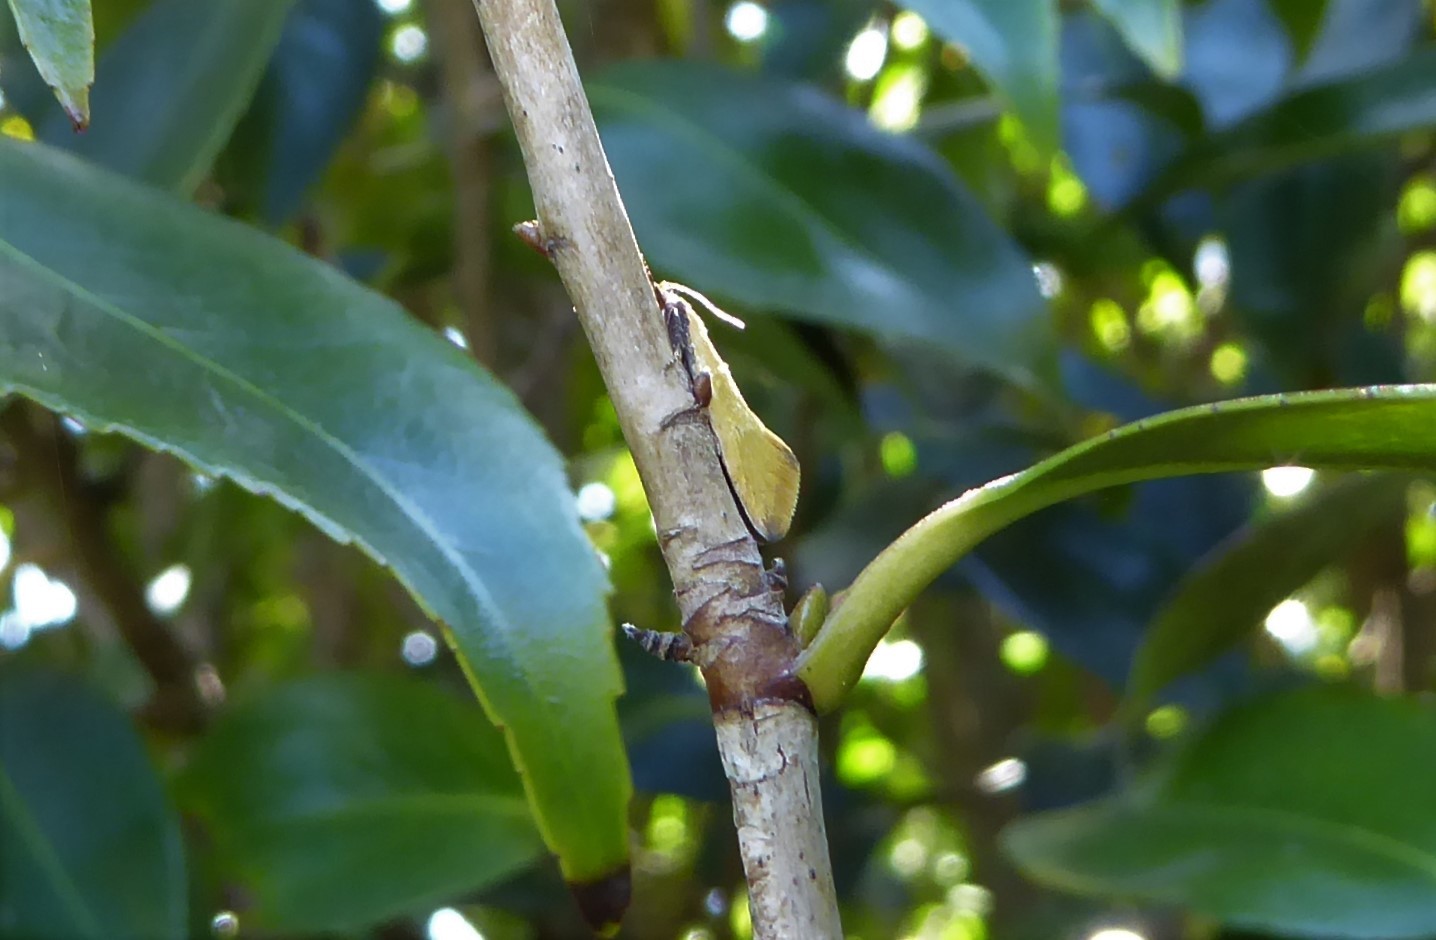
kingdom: Animalia
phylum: Arthropoda
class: Insecta
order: Lepidoptera
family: Oecophoridae
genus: Tingena
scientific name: Tingena actinias
